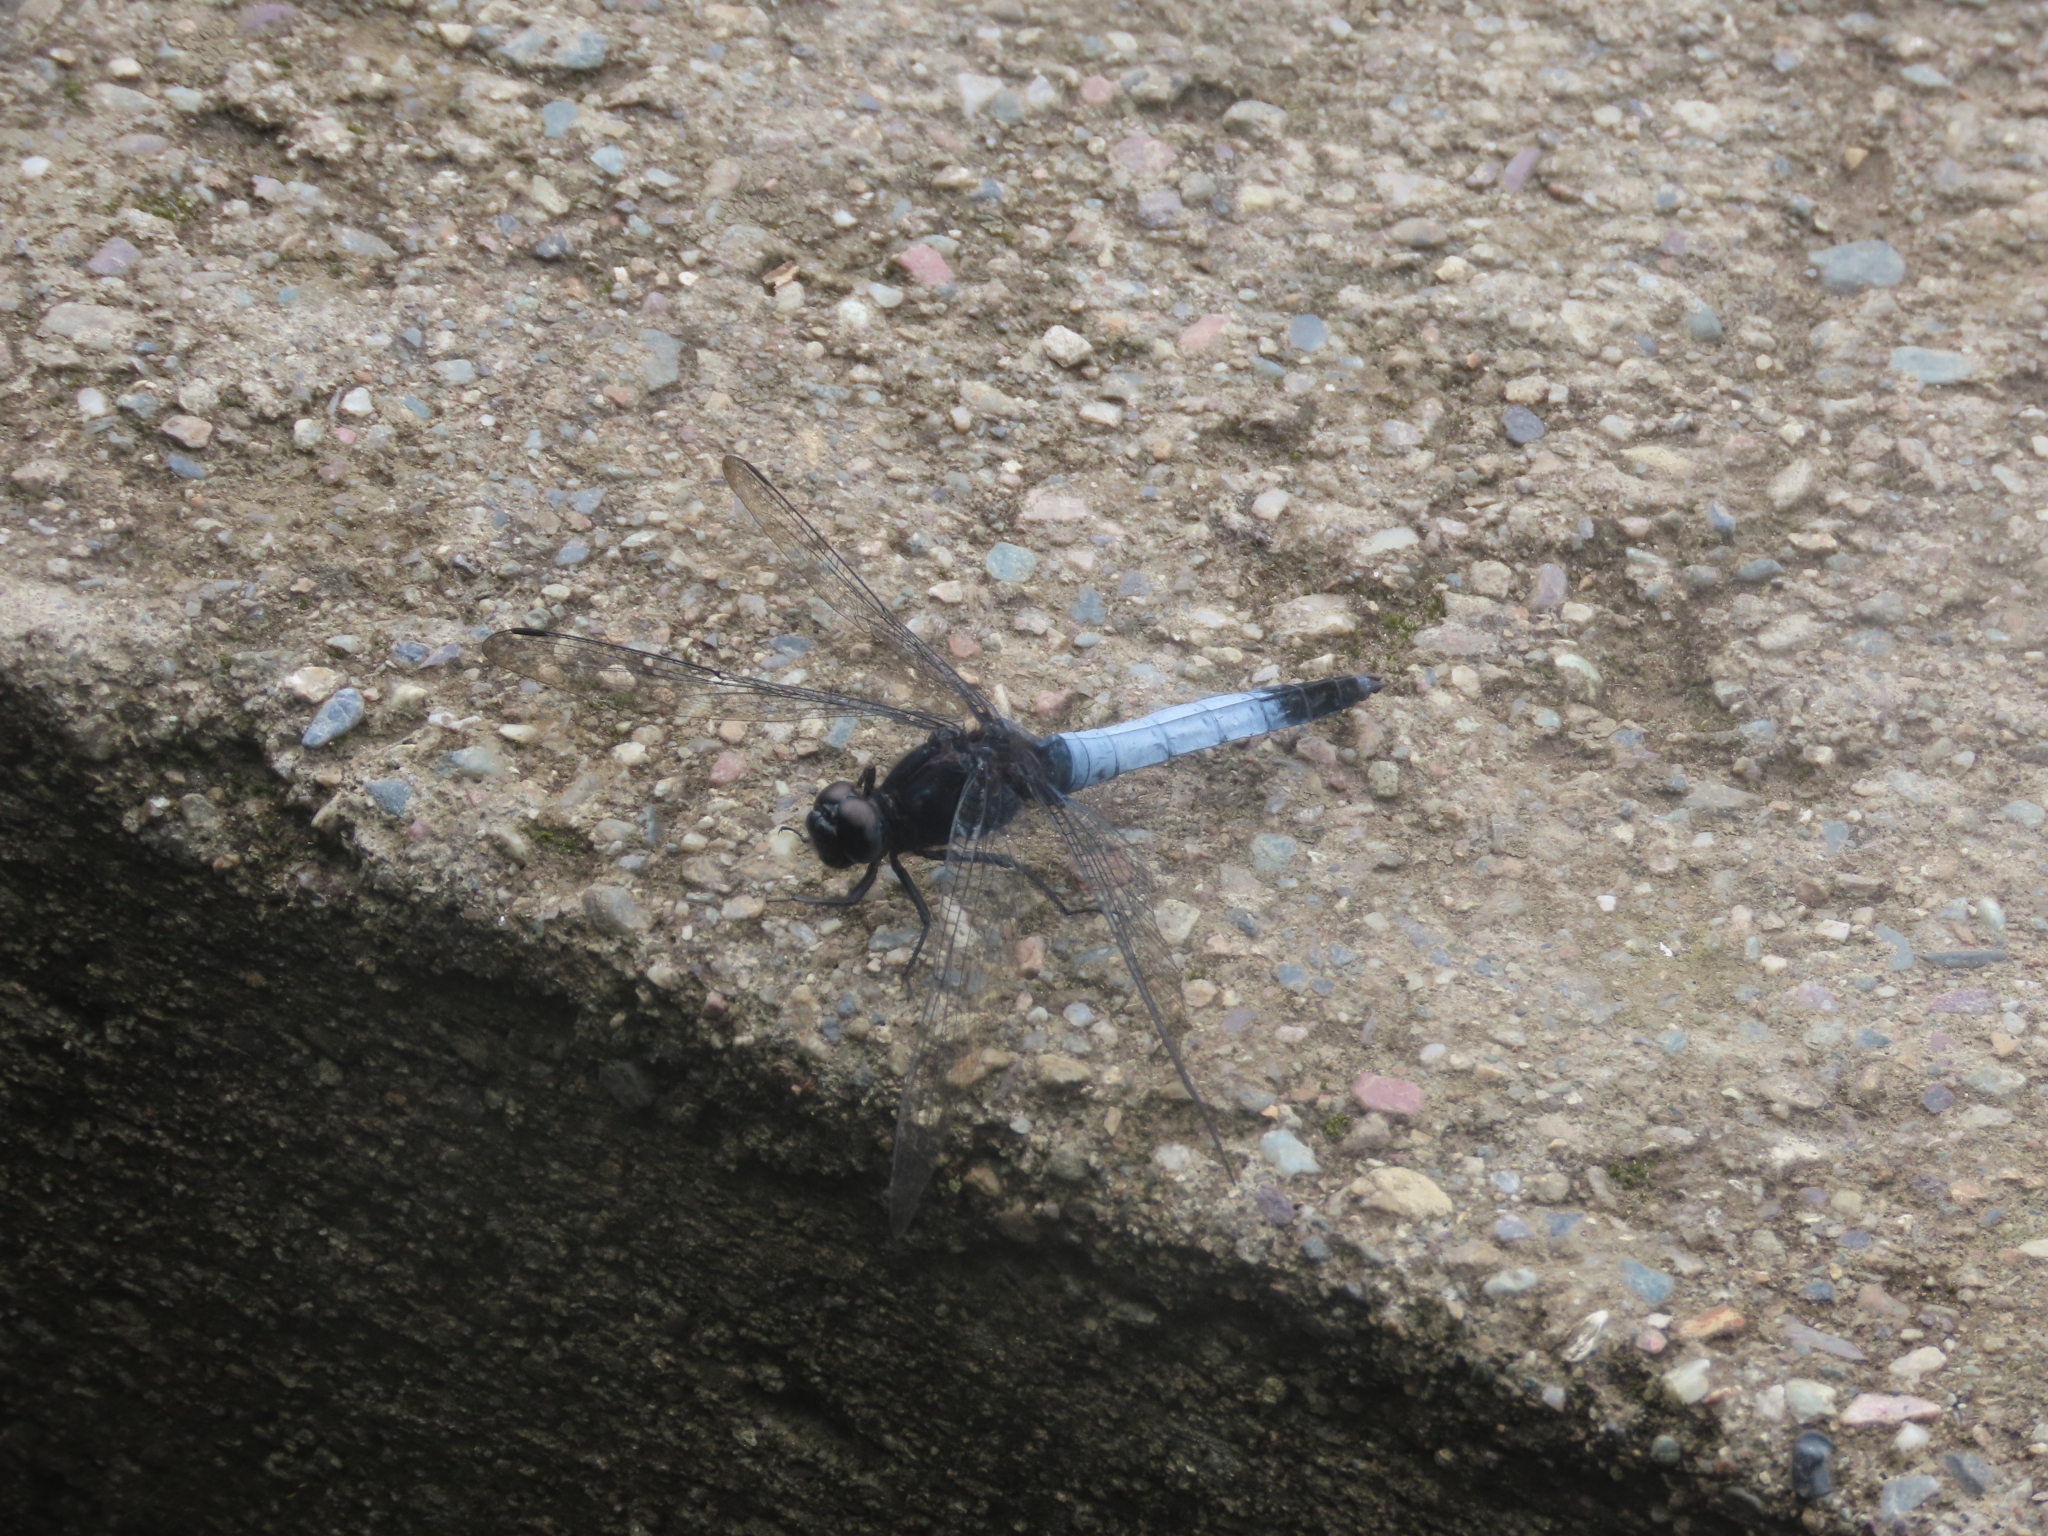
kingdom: Animalia
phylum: Arthropoda
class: Insecta
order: Odonata
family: Libellulidae
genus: Orthetrum
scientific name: Orthetrum triangulare
